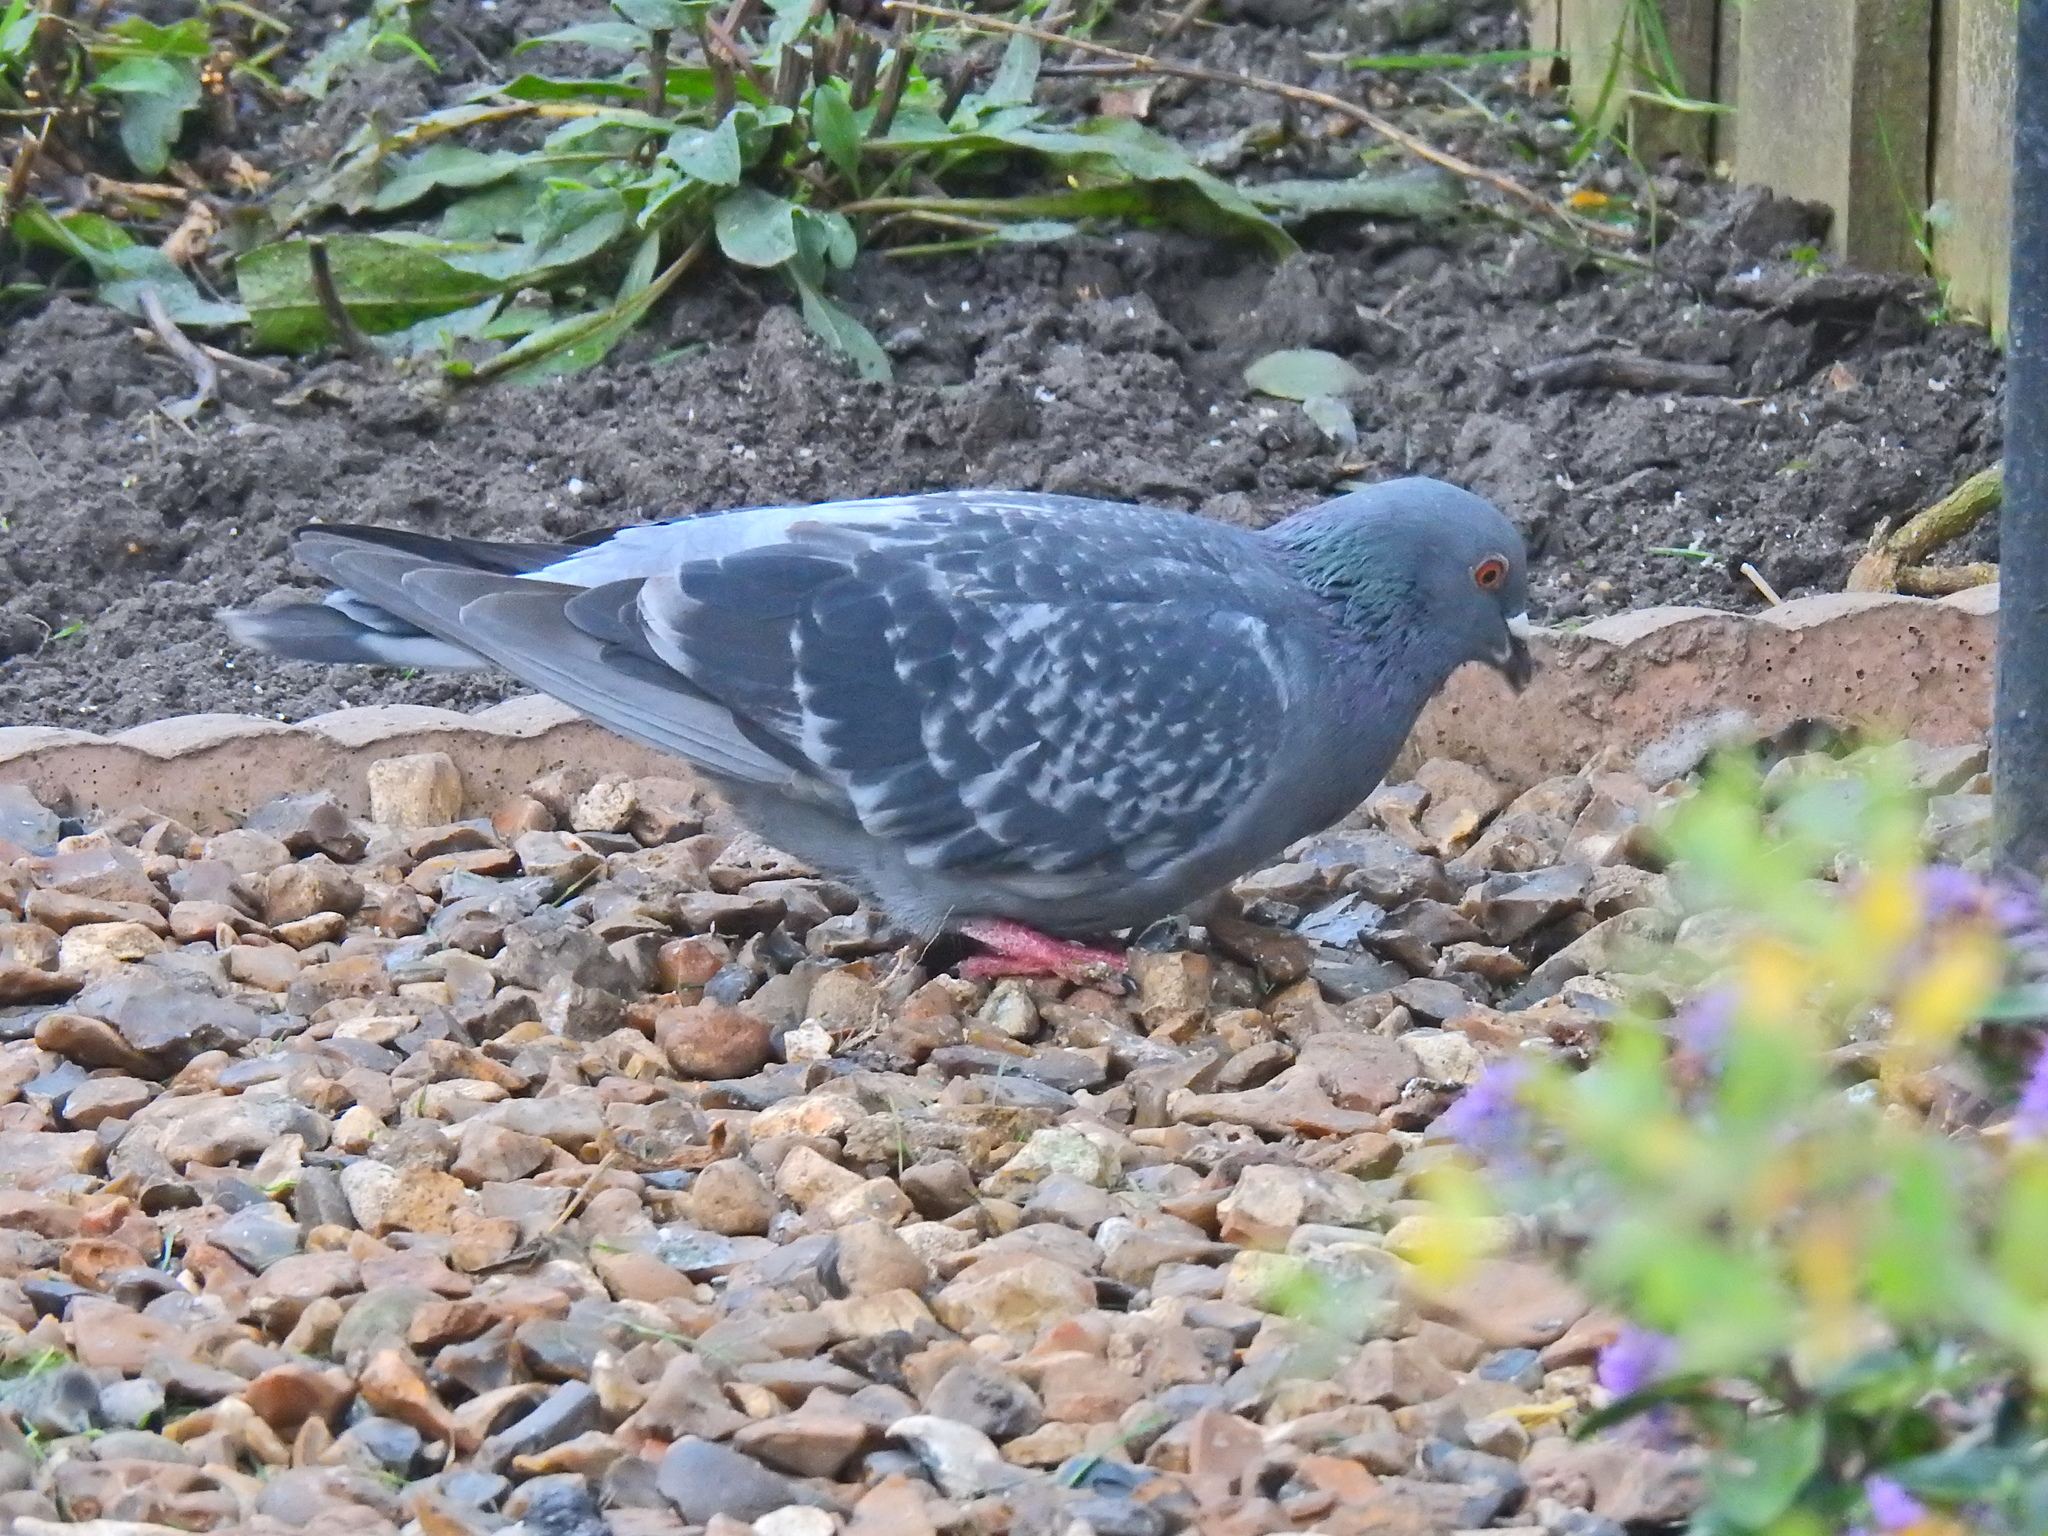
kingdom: Animalia
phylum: Chordata
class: Aves
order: Columbiformes
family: Columbidae
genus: Columba
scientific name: Columba livia
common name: Rock pigeon
